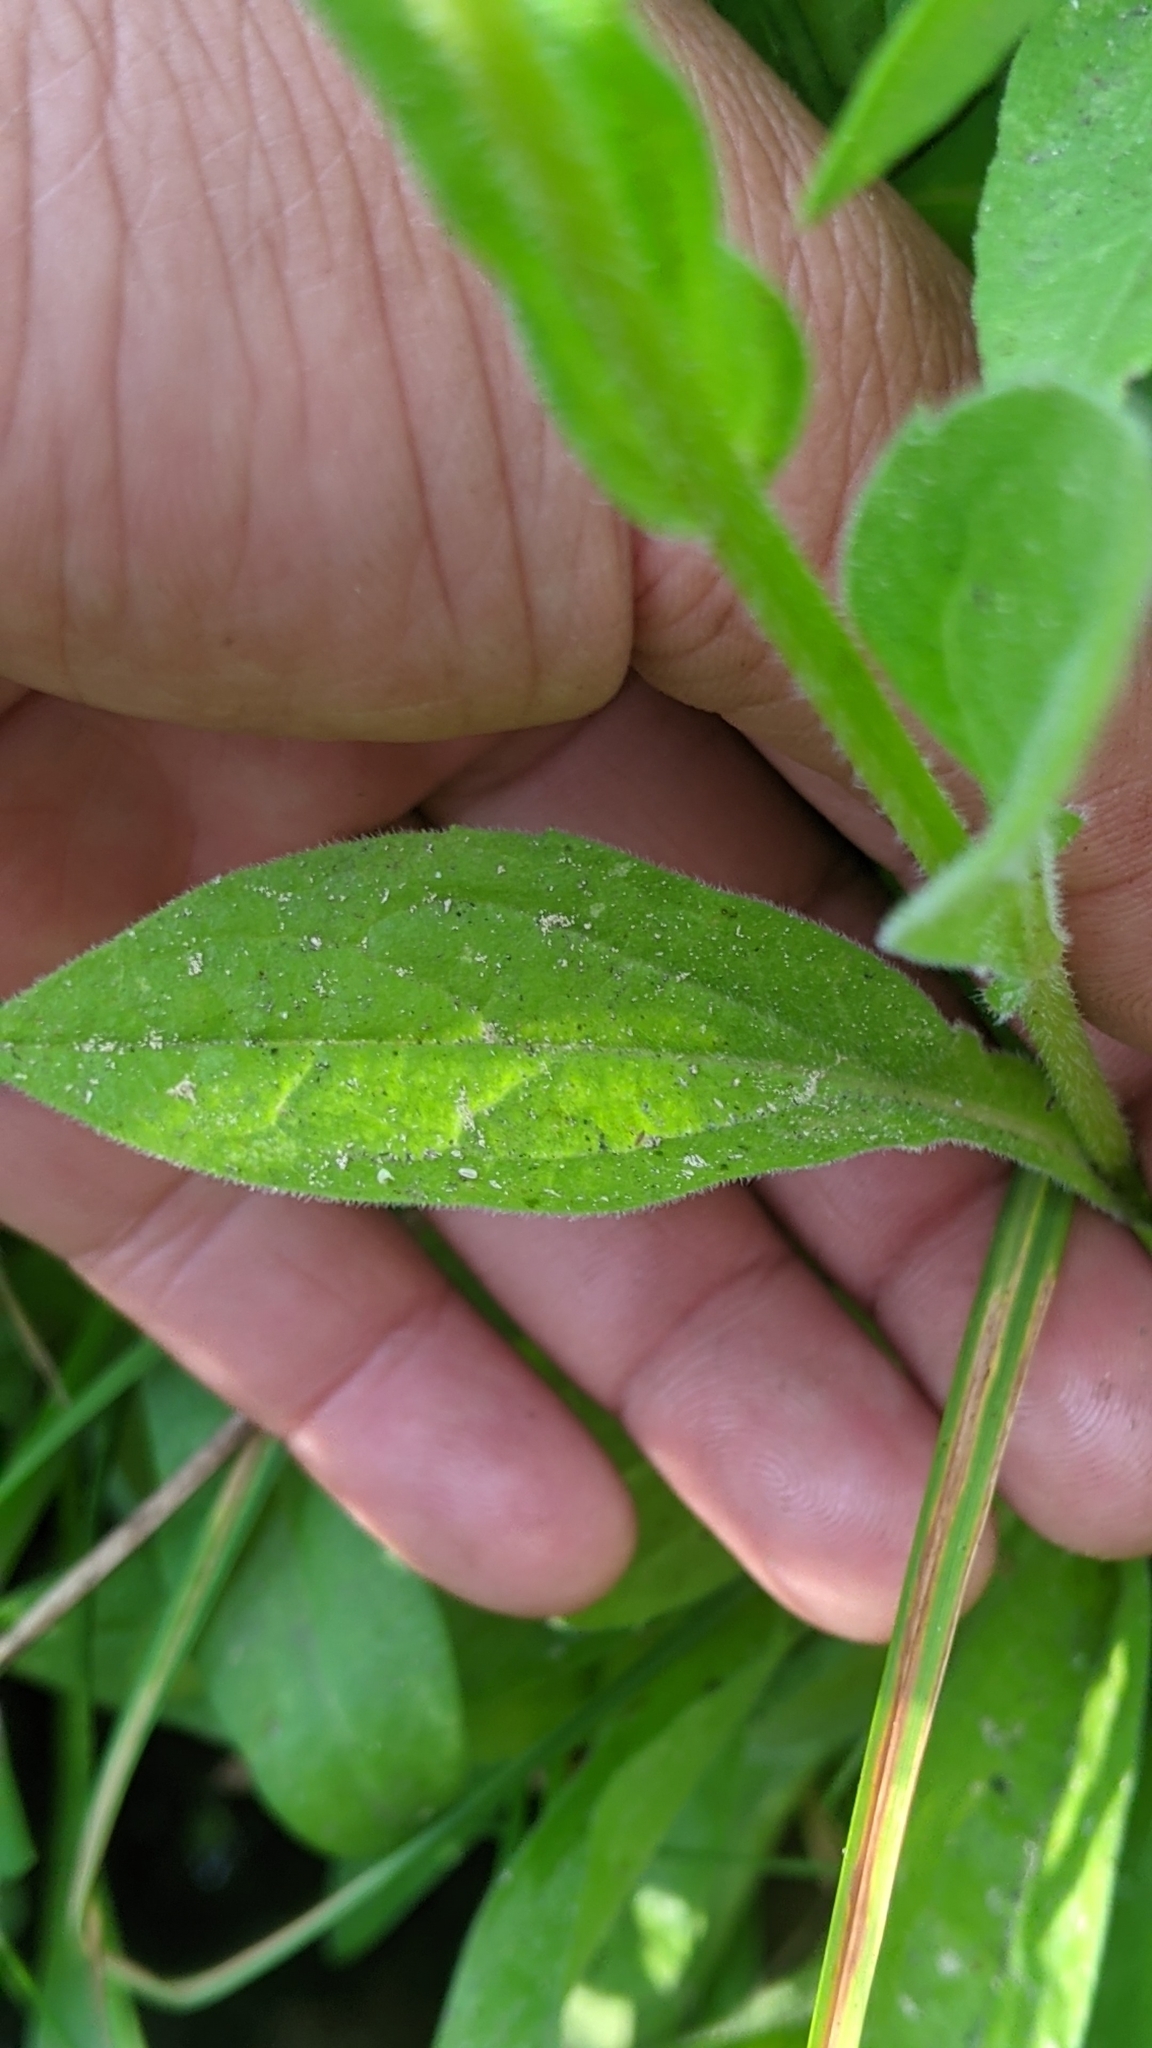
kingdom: Plantae
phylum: Tracheophyta
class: Magnoliopsida
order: Asterales
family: Asteraceae
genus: Erigeron
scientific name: Erigeron coulteri
